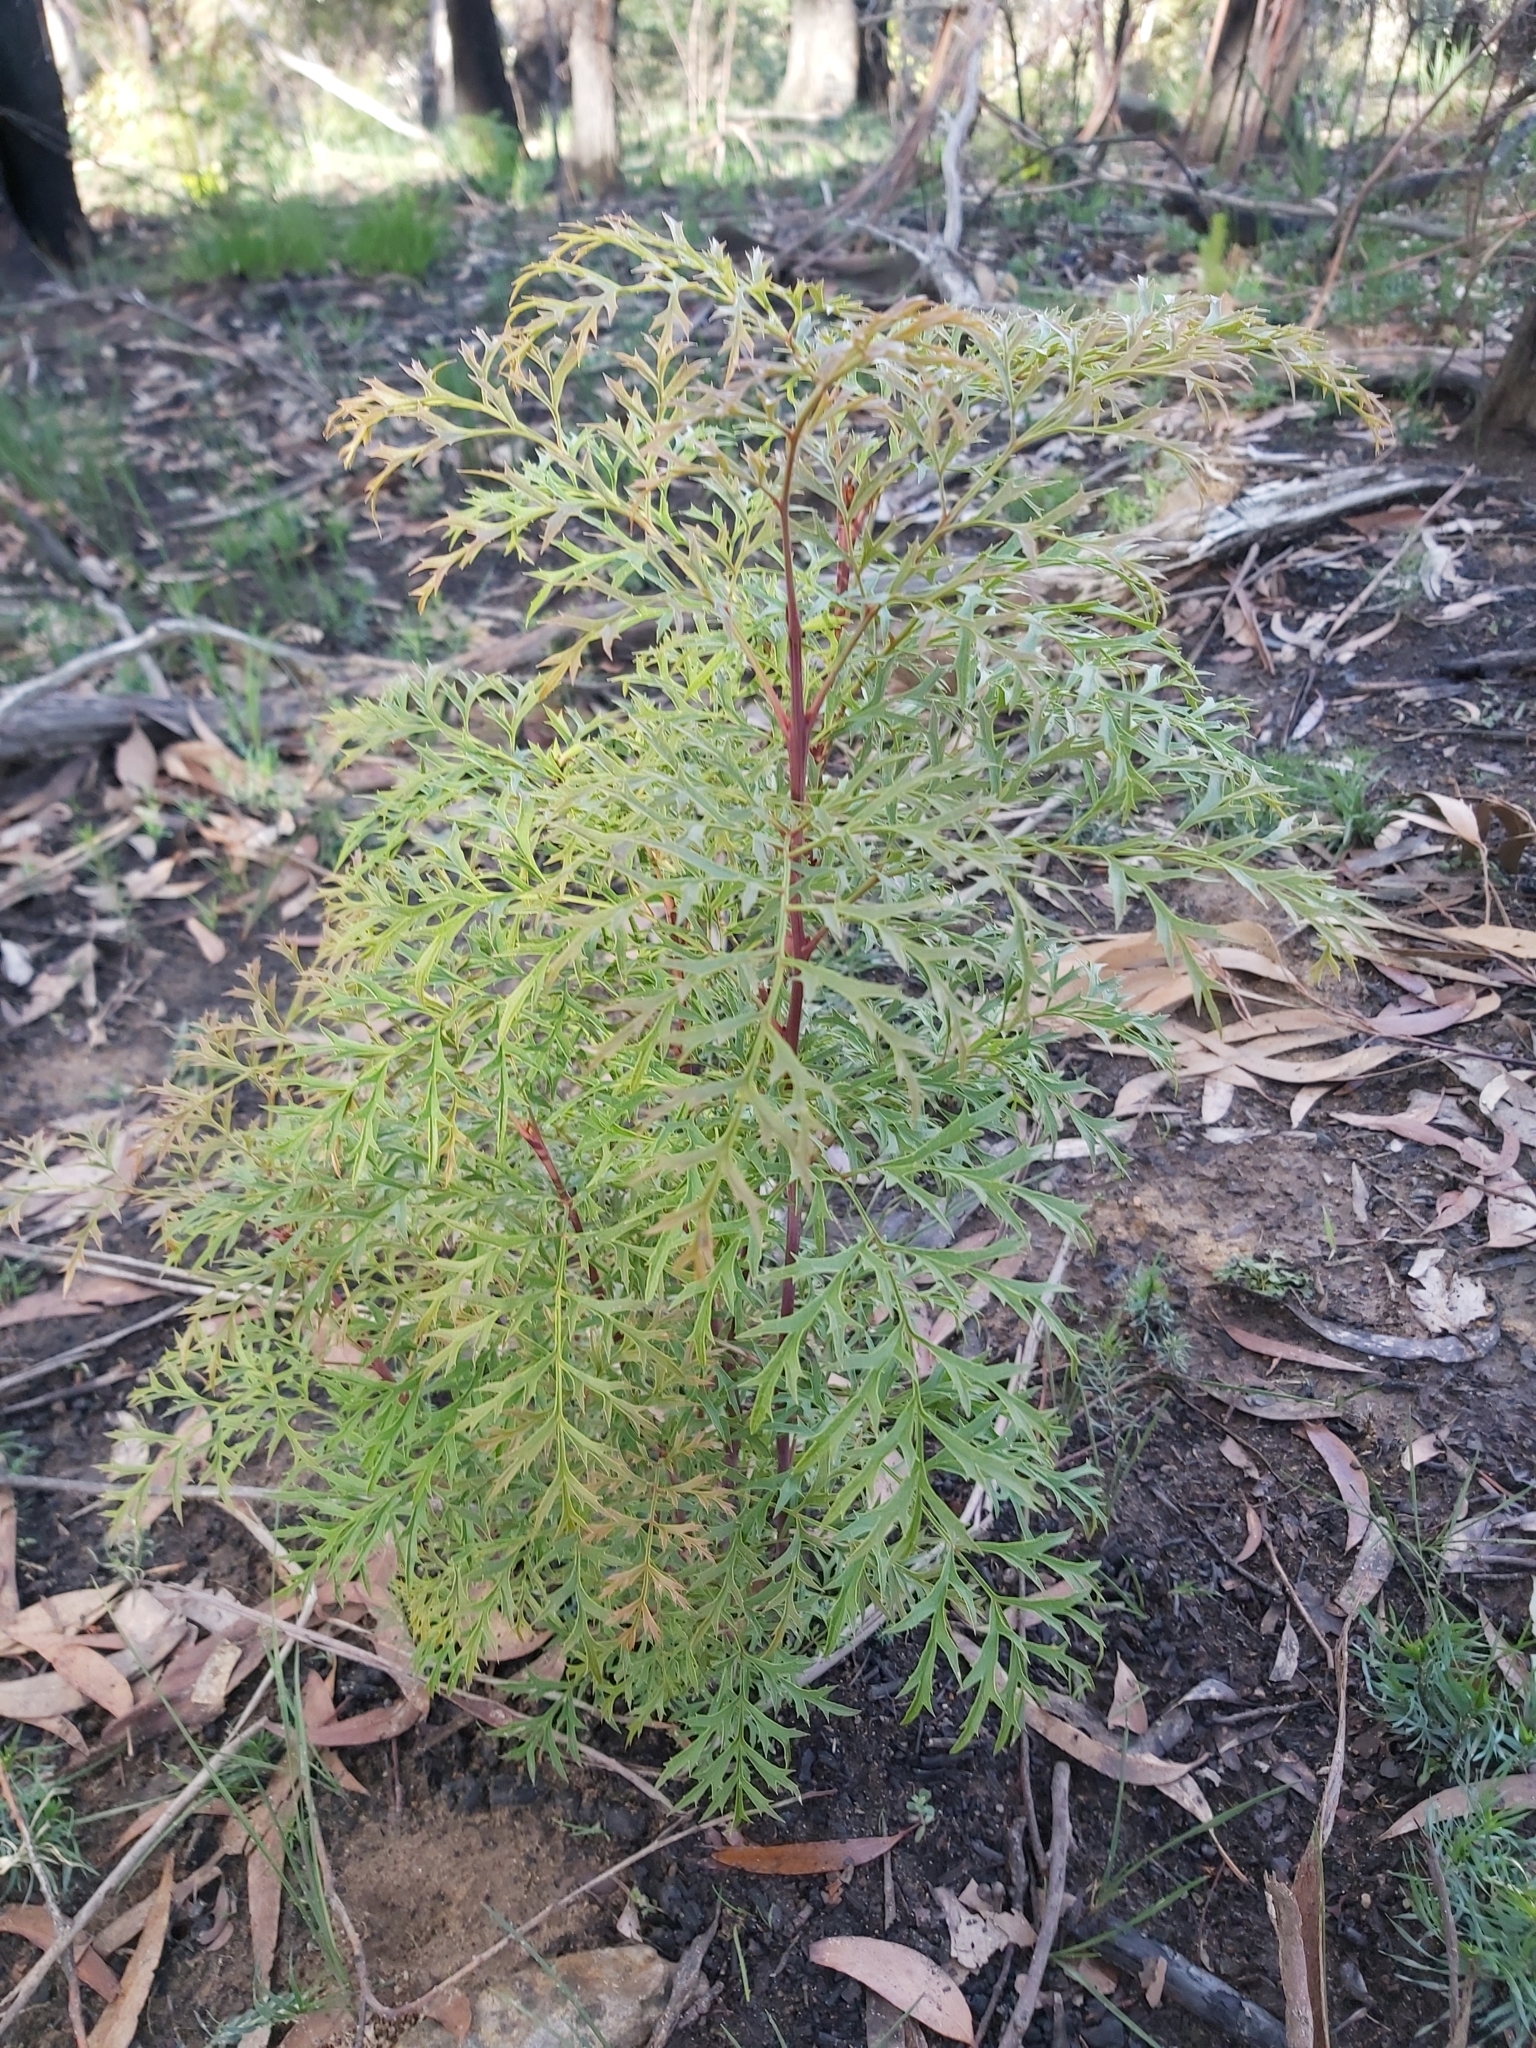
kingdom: Plantae
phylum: Tracheophyta
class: Magnoliopsida
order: Proteales
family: Proteaceae
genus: Lomatia
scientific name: Lomatia silaifolia
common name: Crinklebush
